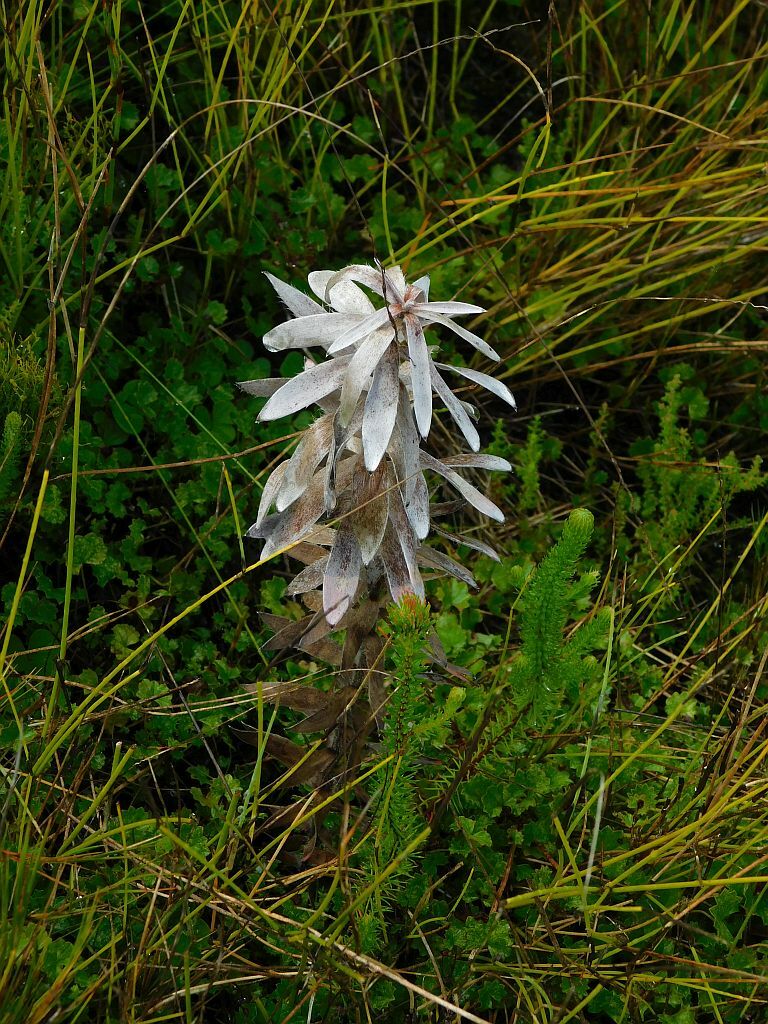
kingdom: Plantae
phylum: Tracheophyta
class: Magnoliopsida
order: Proteales
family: Proteaceae
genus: Mimetes
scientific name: Mimetes argenteus
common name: Silver pagoda
